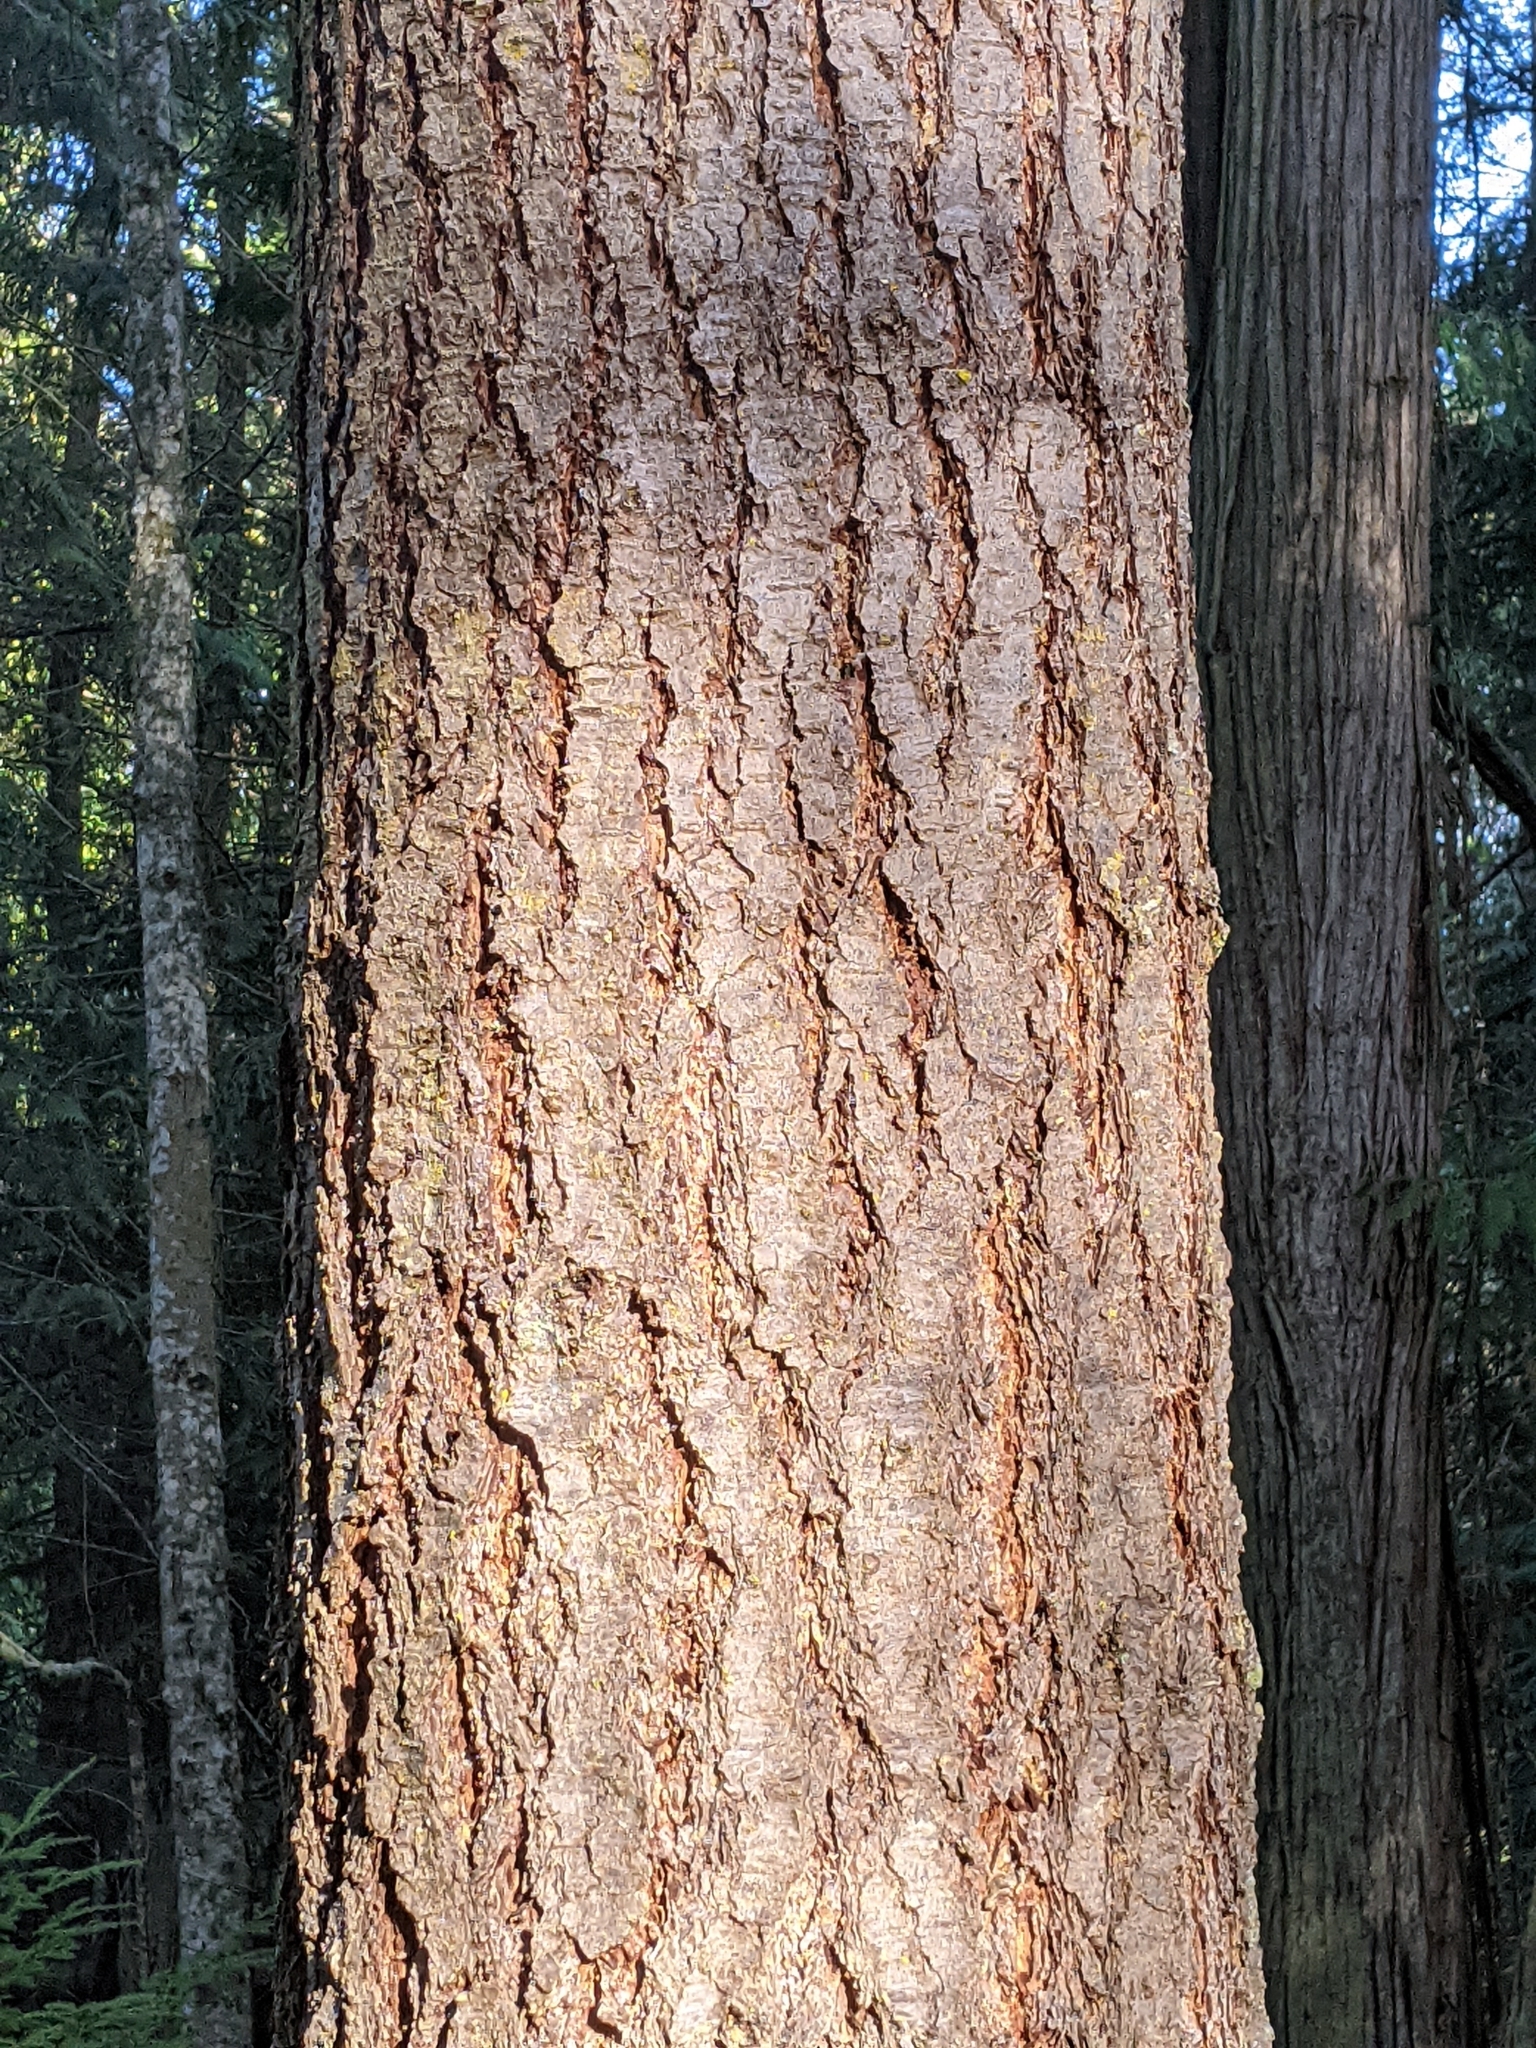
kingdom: Plantae
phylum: Tracheophyta
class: Pinopsida
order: Pinales
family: Pinaceae
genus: Pseudotsuga
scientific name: Pseudotsuga menziesii
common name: Douglas fir
